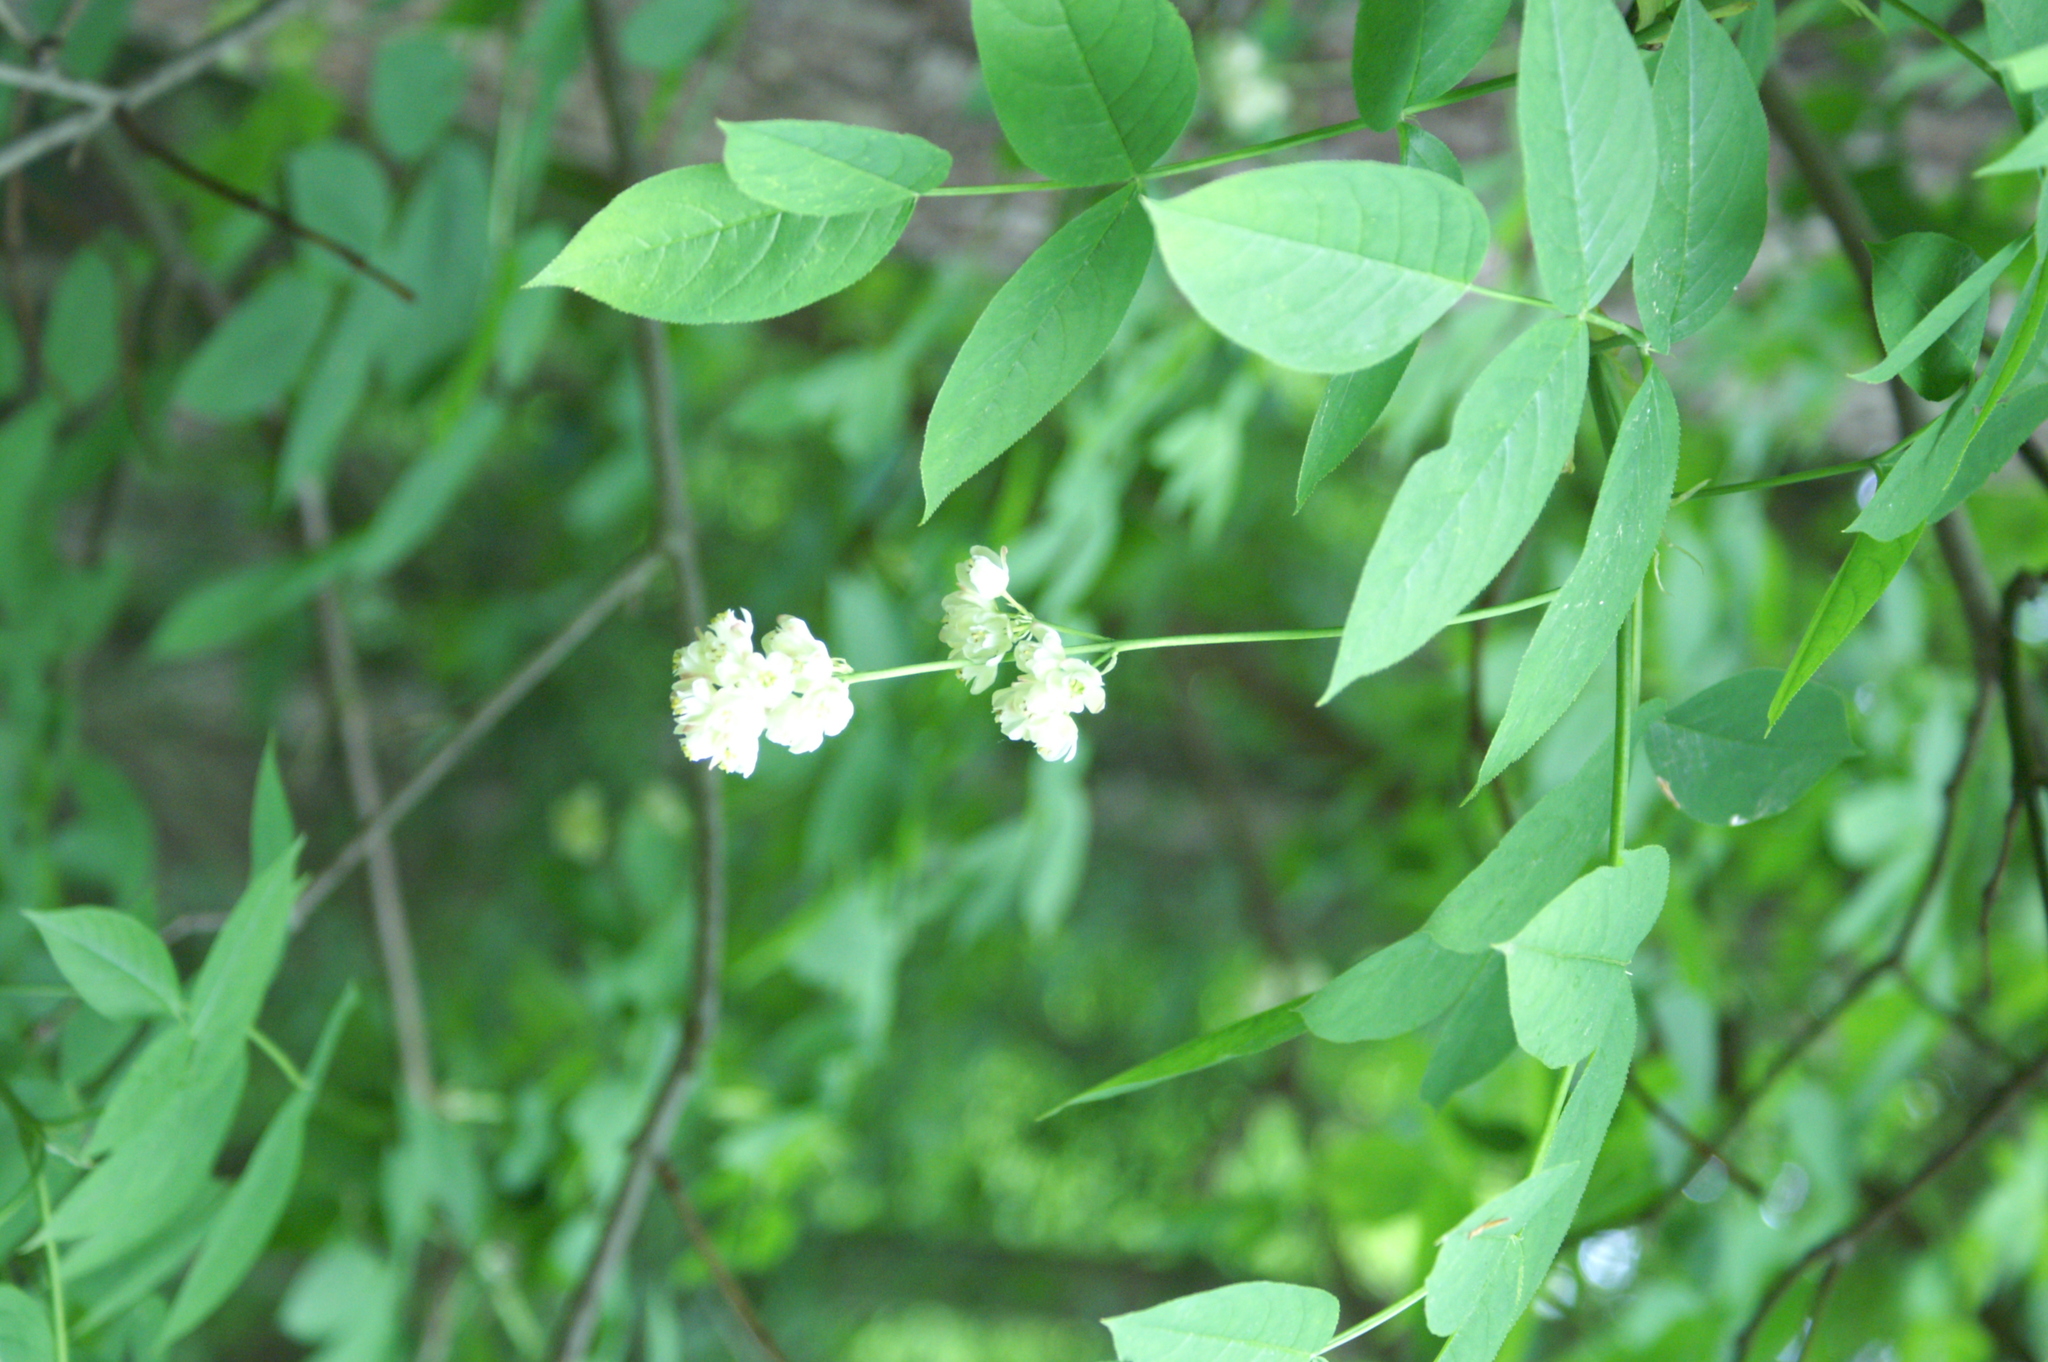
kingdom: Plantae
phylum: Tracheophyta
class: Magnoliopsida
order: Crossosomatales
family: Staphyleaceae
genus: Staphylea
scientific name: Staphylea pinnata
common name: Bladdernut
